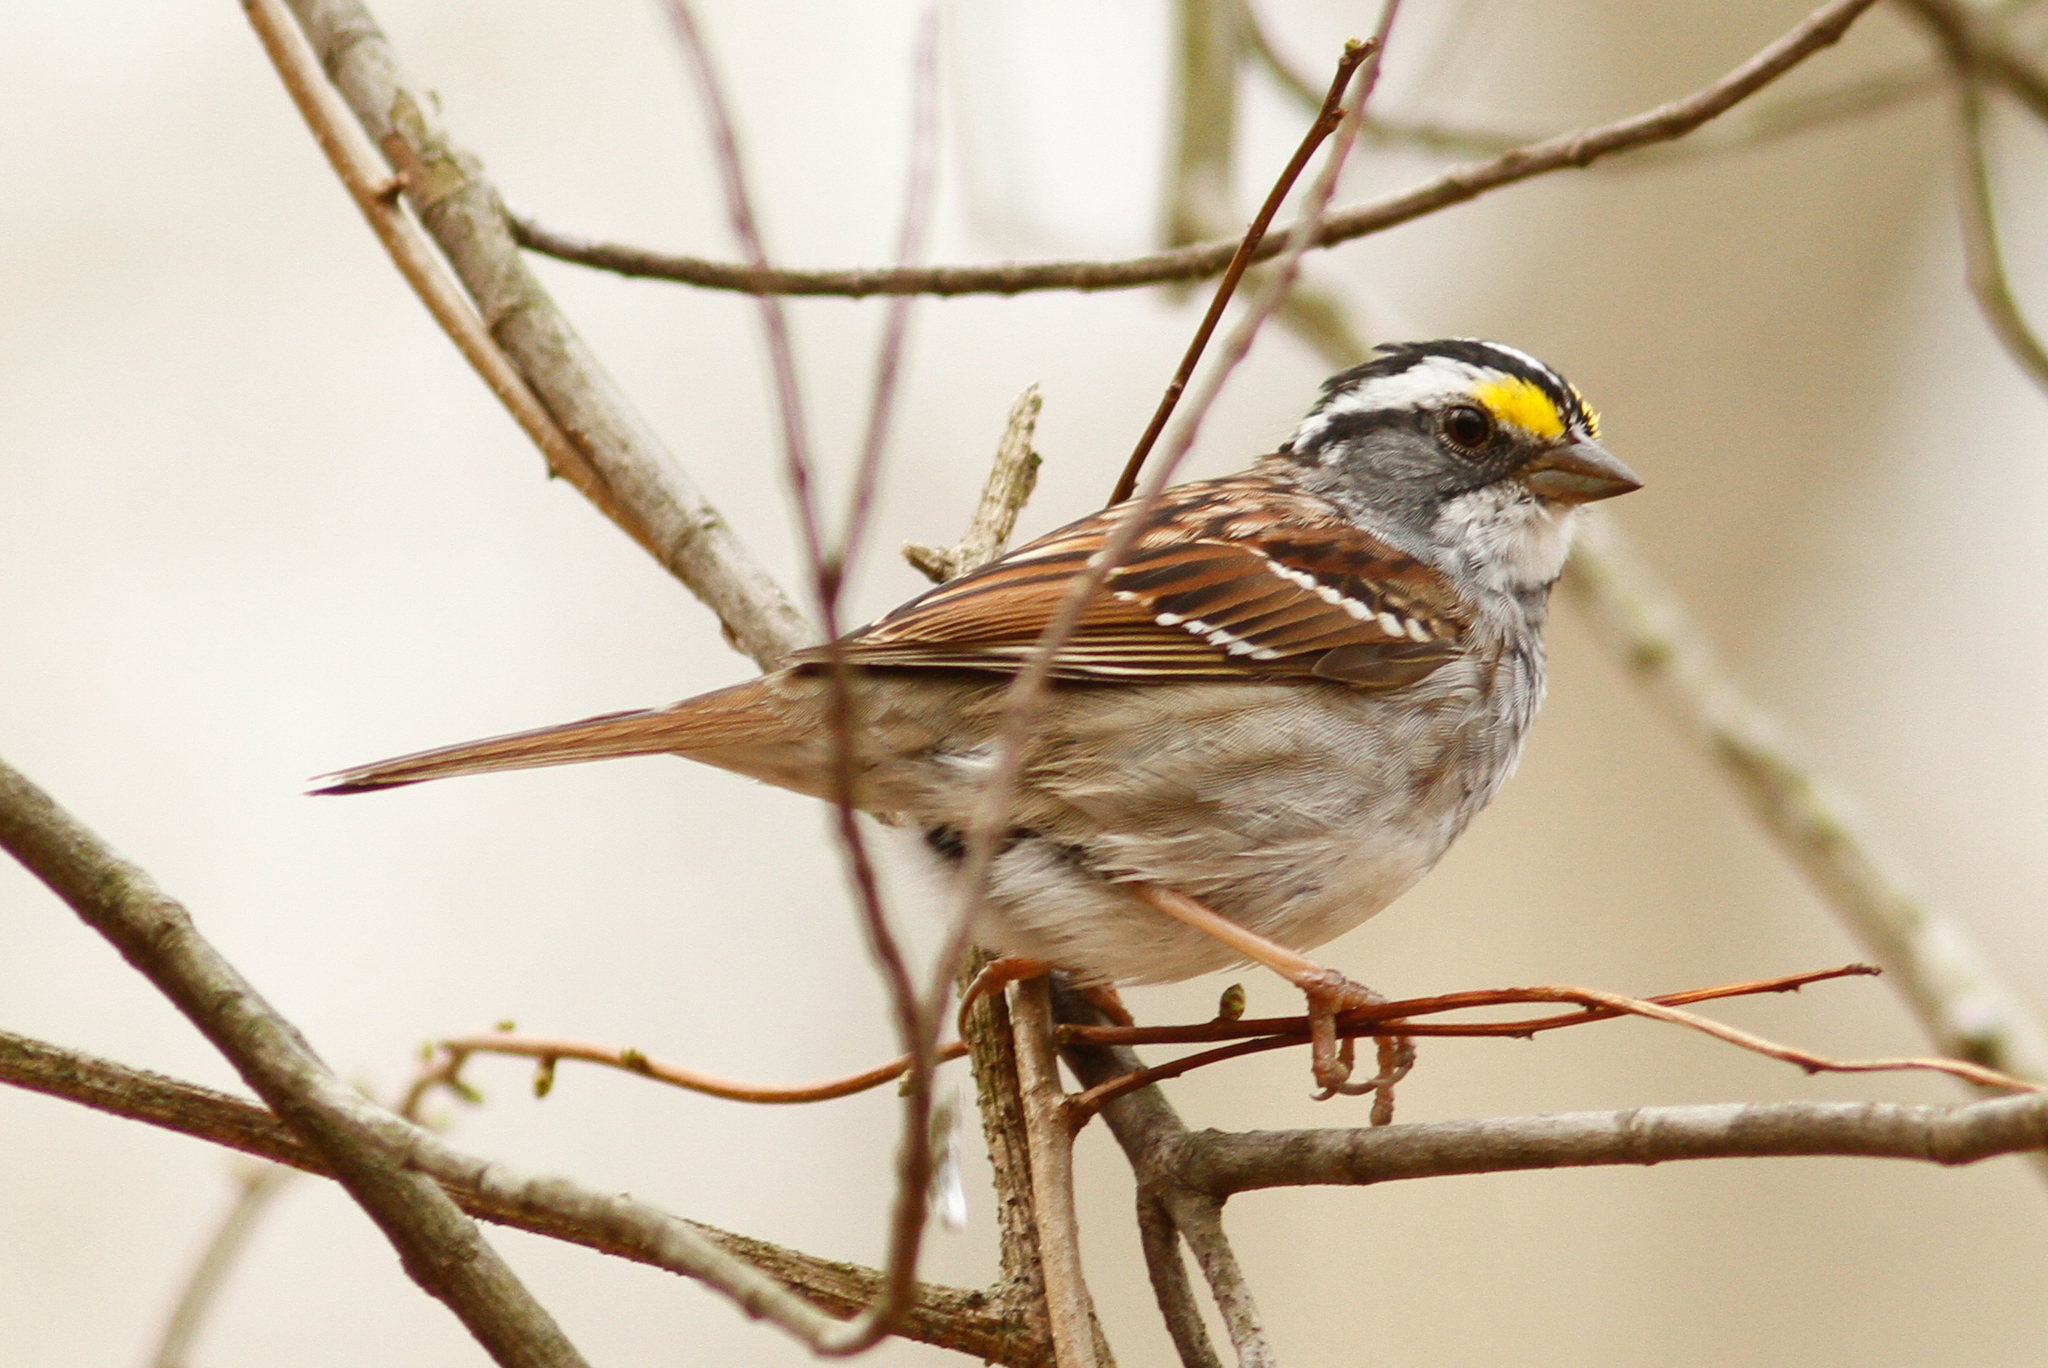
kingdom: Animalia
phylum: Chordata
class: Aves
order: Passeriformes
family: Passerellidae
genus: Zonotrichia
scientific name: Zonotrichia albicollis
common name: White-throated sparrow
